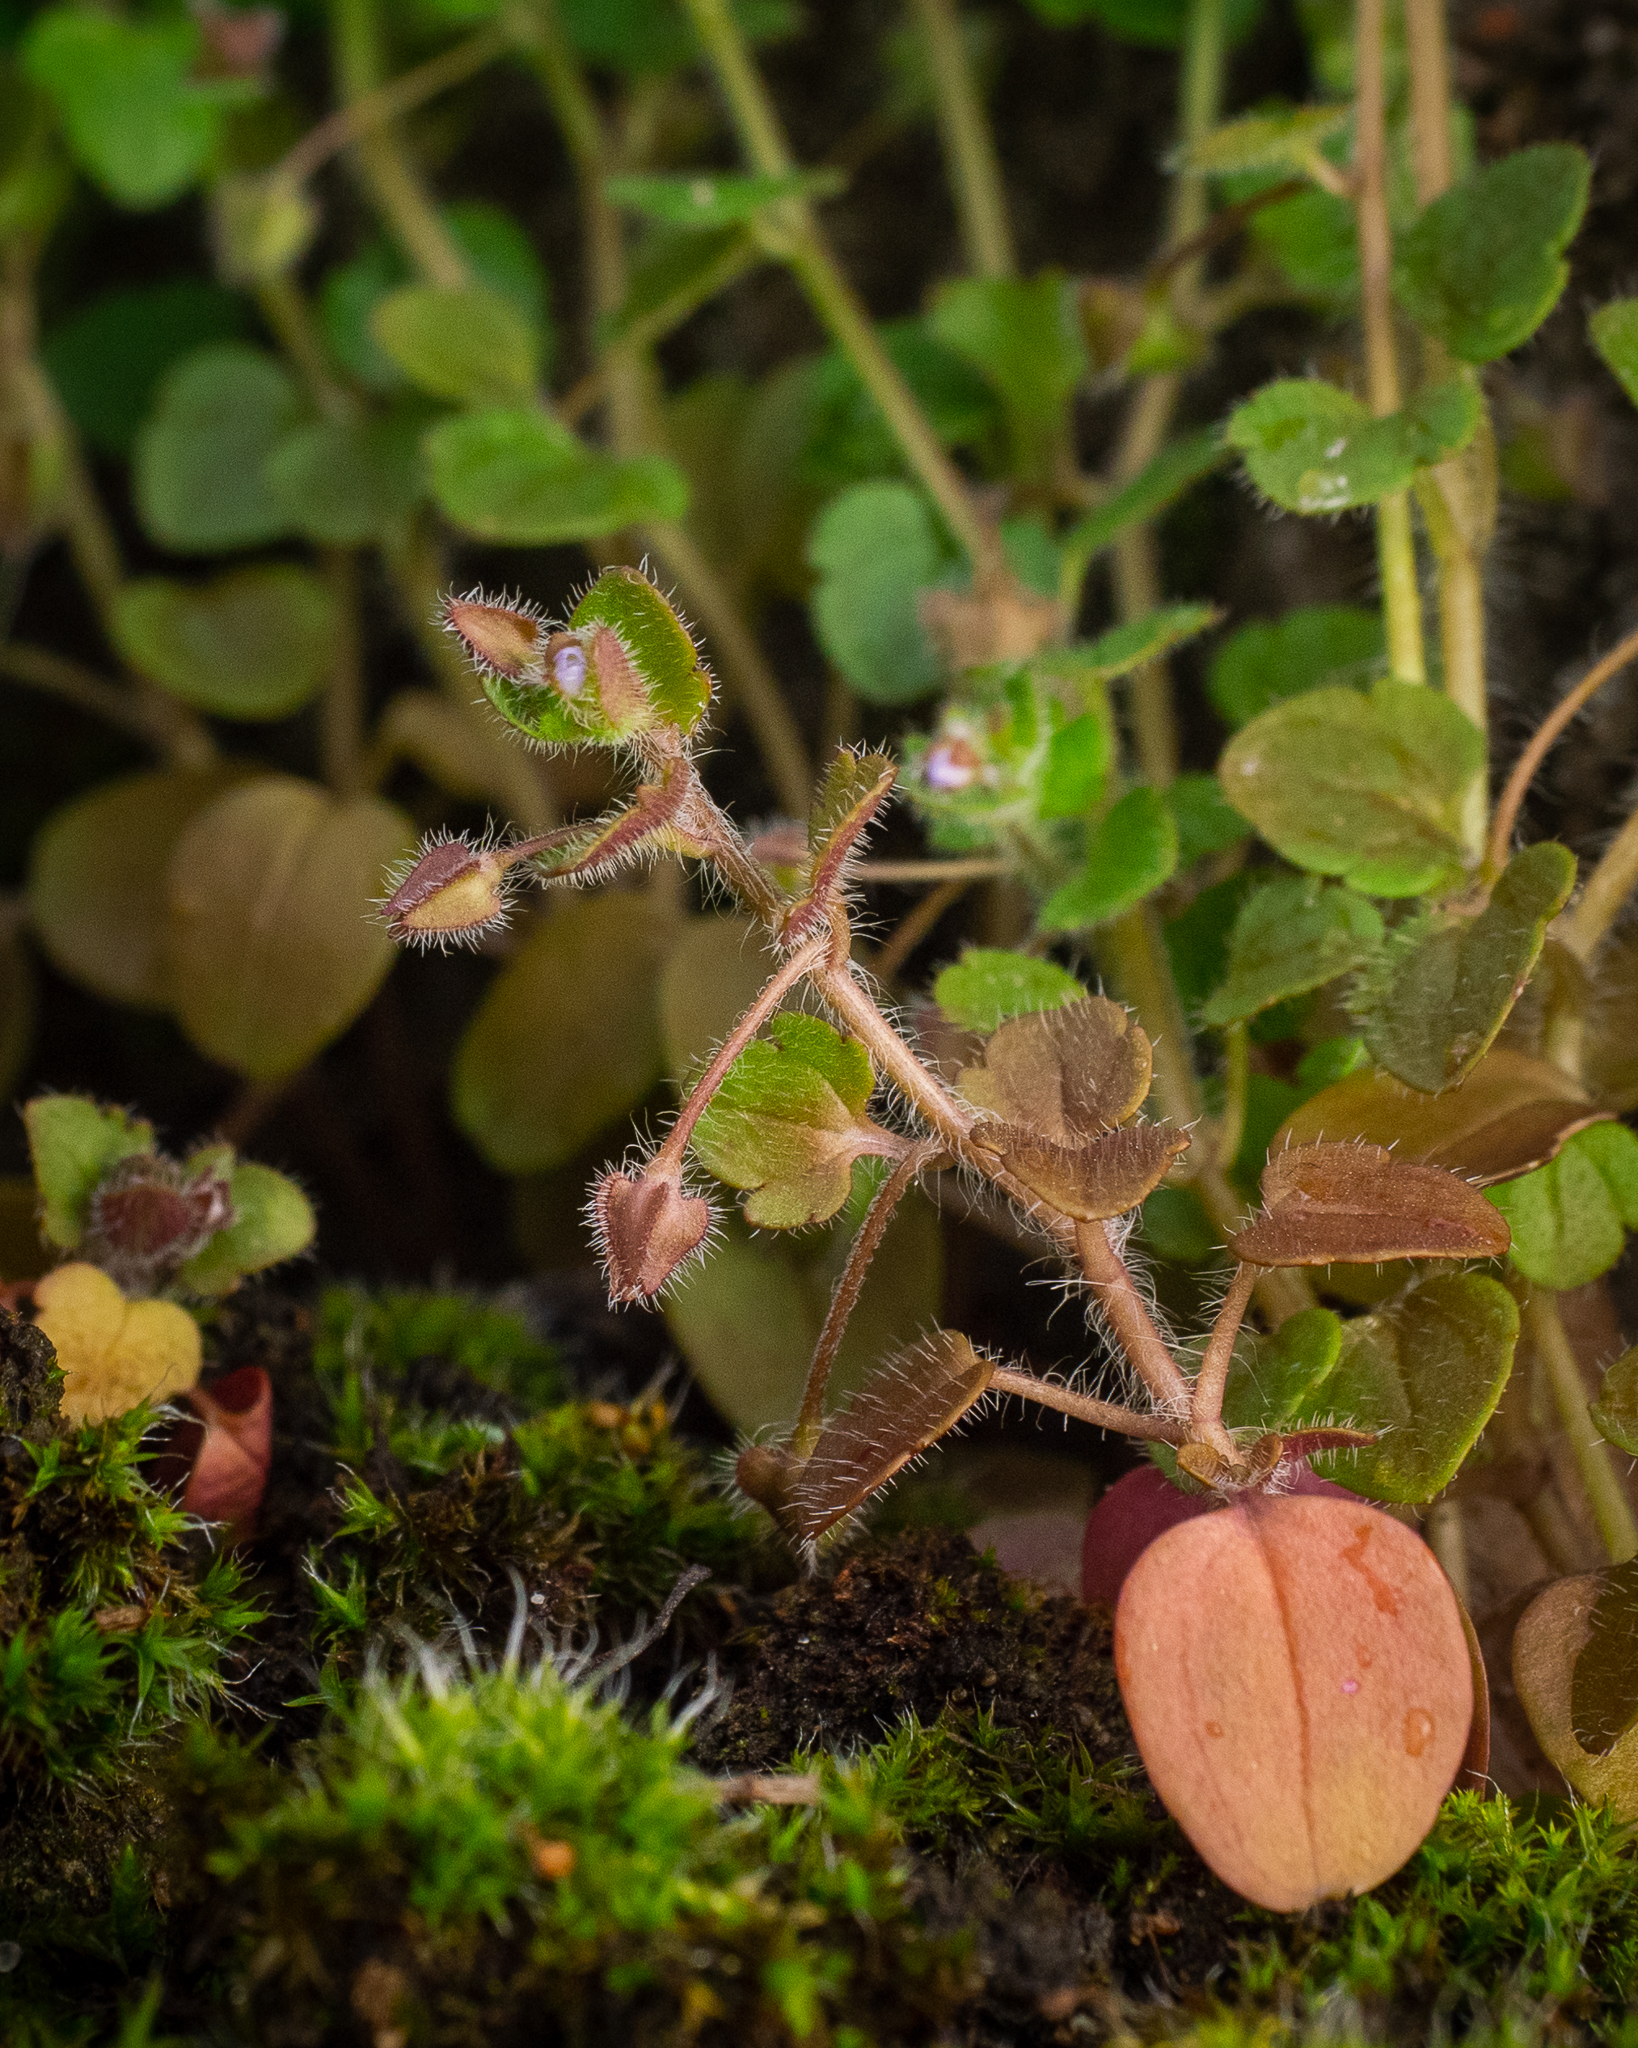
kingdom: Plantae
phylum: Tracheophyta
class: Magnoliopsida
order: Lamiales
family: Plantaginaceae
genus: Veronica
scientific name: Veronica sublobata
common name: False ivy-leaved speedwell
